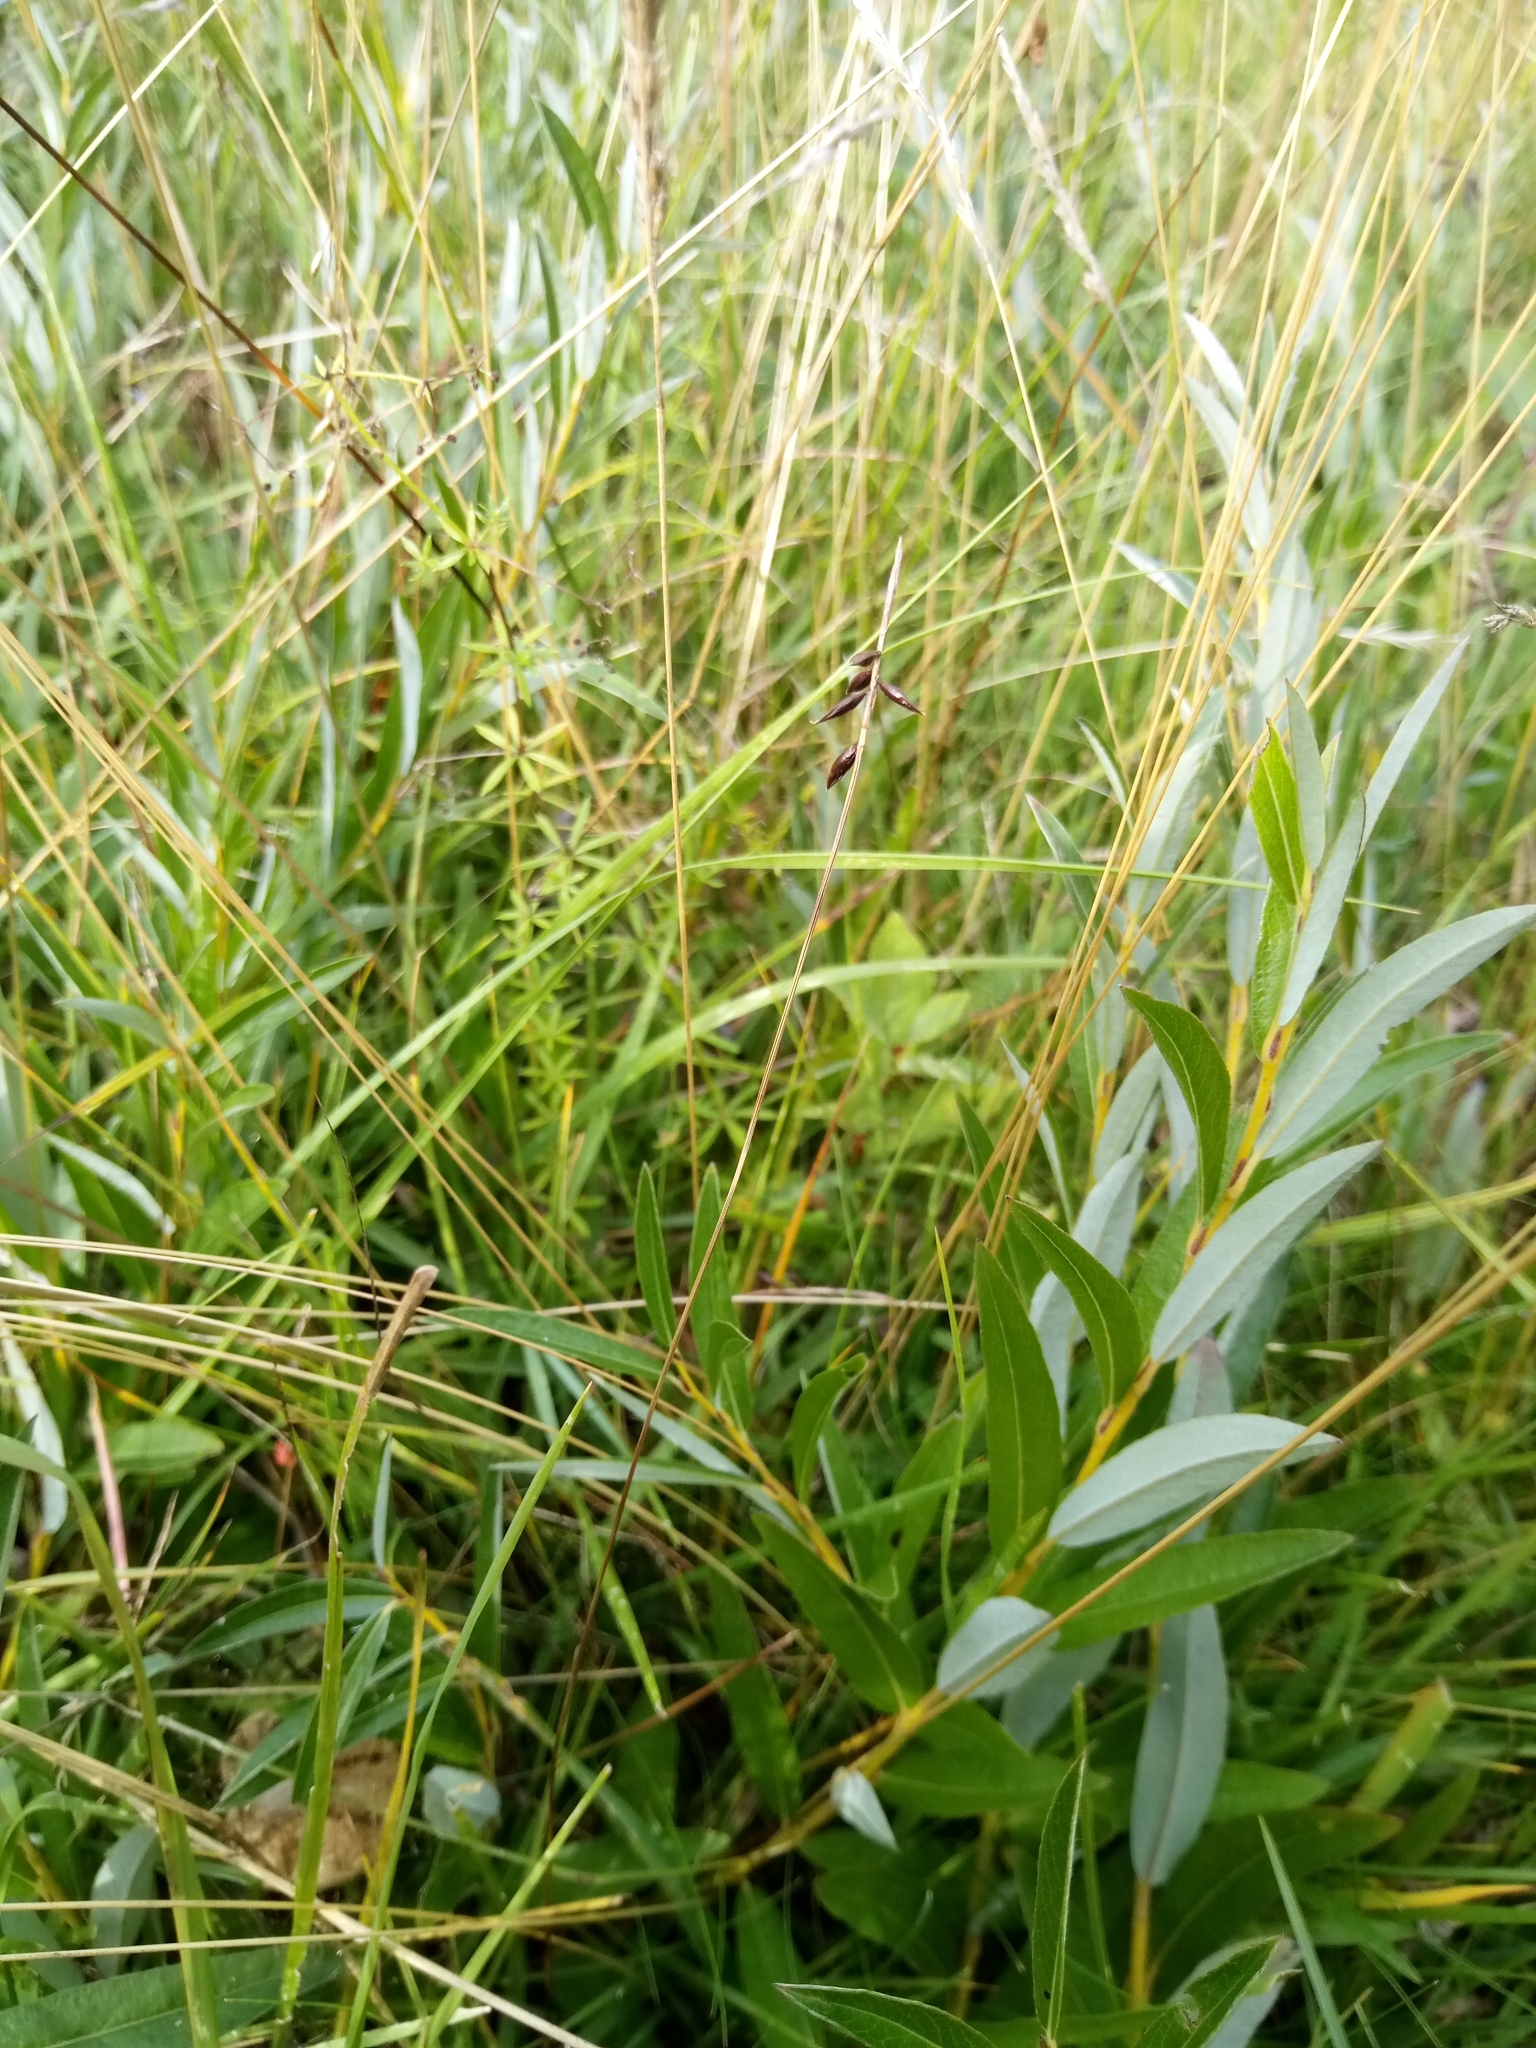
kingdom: Plantae
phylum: Tracheophyta
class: Liliopsida
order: Poales
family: Cyperaceae
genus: Carex
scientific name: Carex pulicaris
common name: Flea sedge
